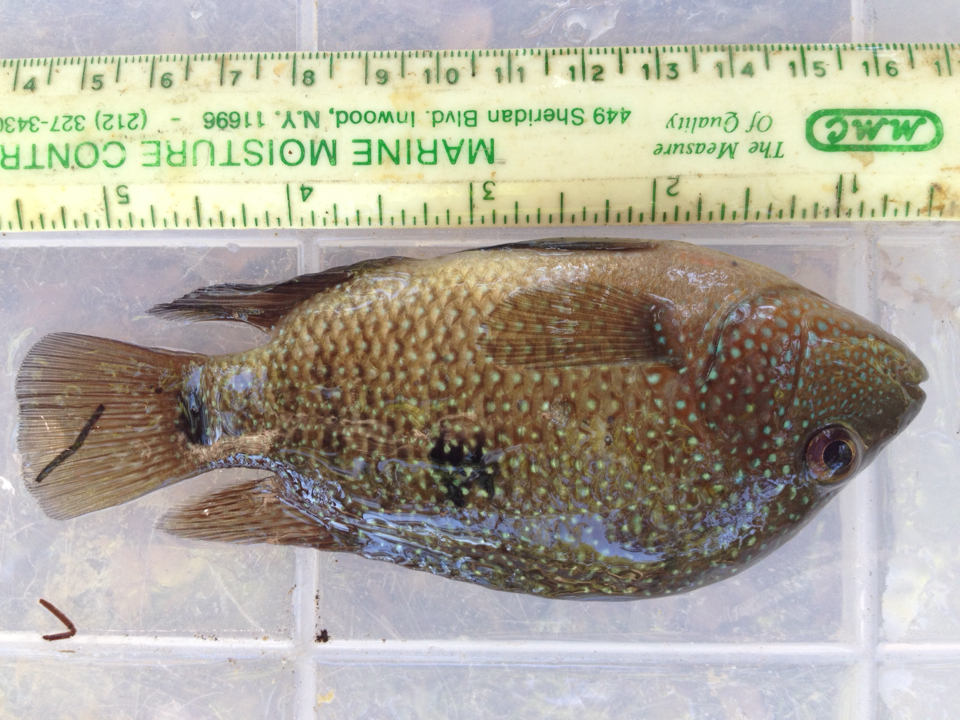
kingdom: Animalia
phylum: Chordata
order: Perciformes
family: Cichlidae
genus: Herichthys
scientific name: Herichthys cyanoguttatus
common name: Rio grande cichlid
